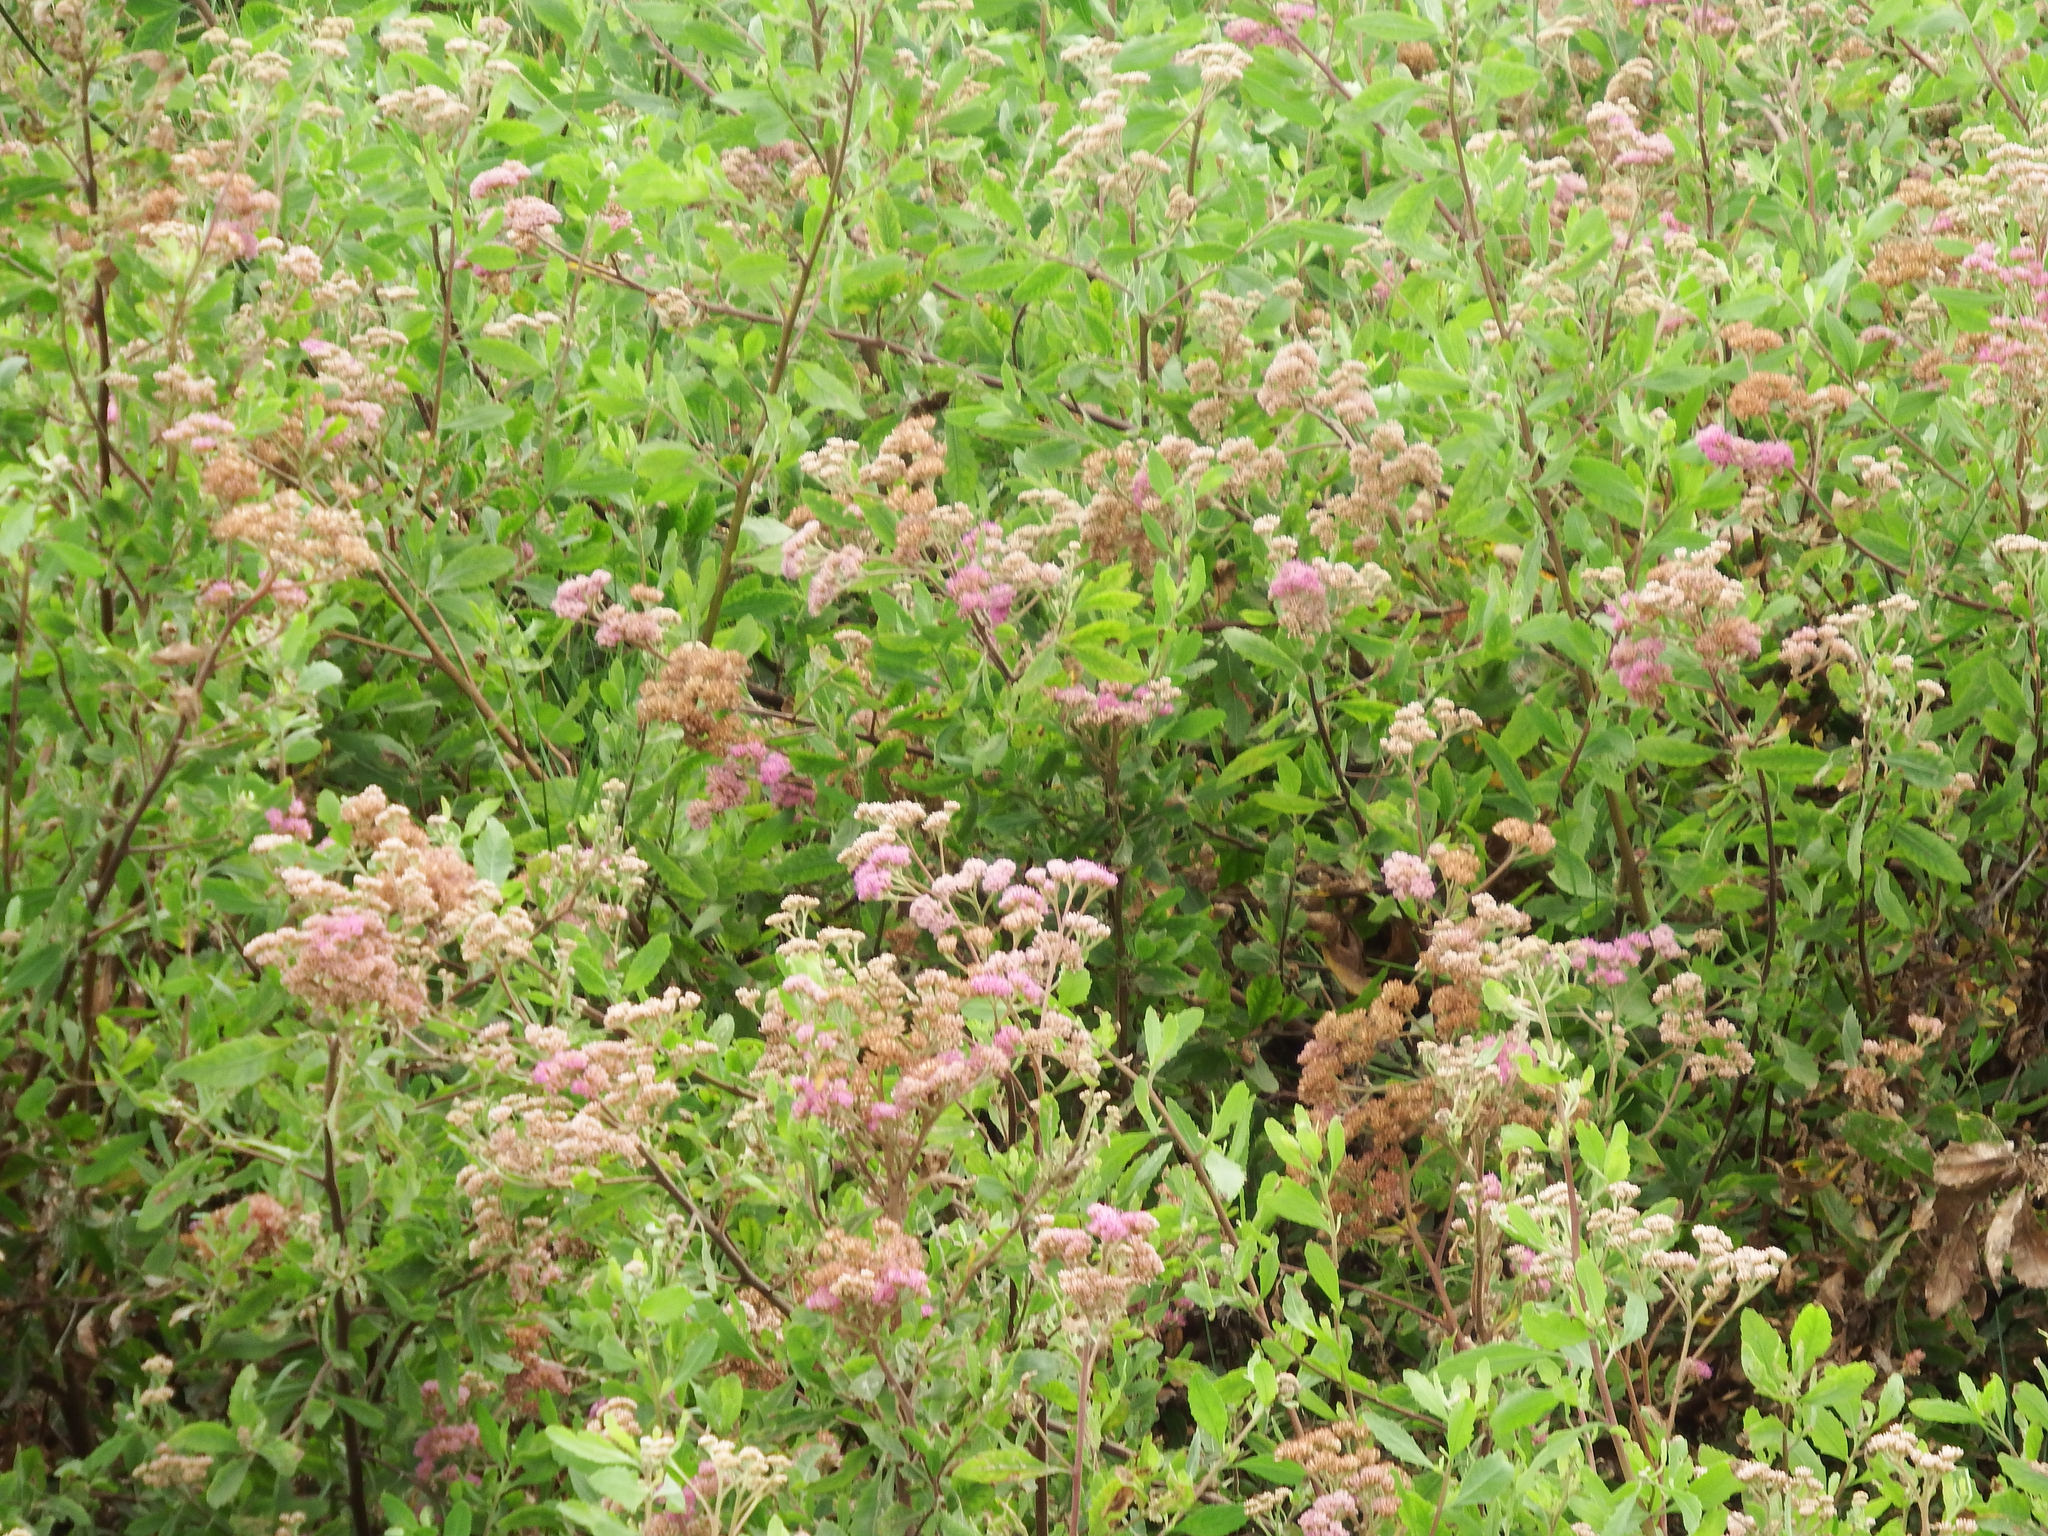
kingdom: Plantae
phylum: Tracheophyta
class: Magnoliopsida
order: Asterales
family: Asteraceae
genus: Tessaria
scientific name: Tessaria integrifolia
